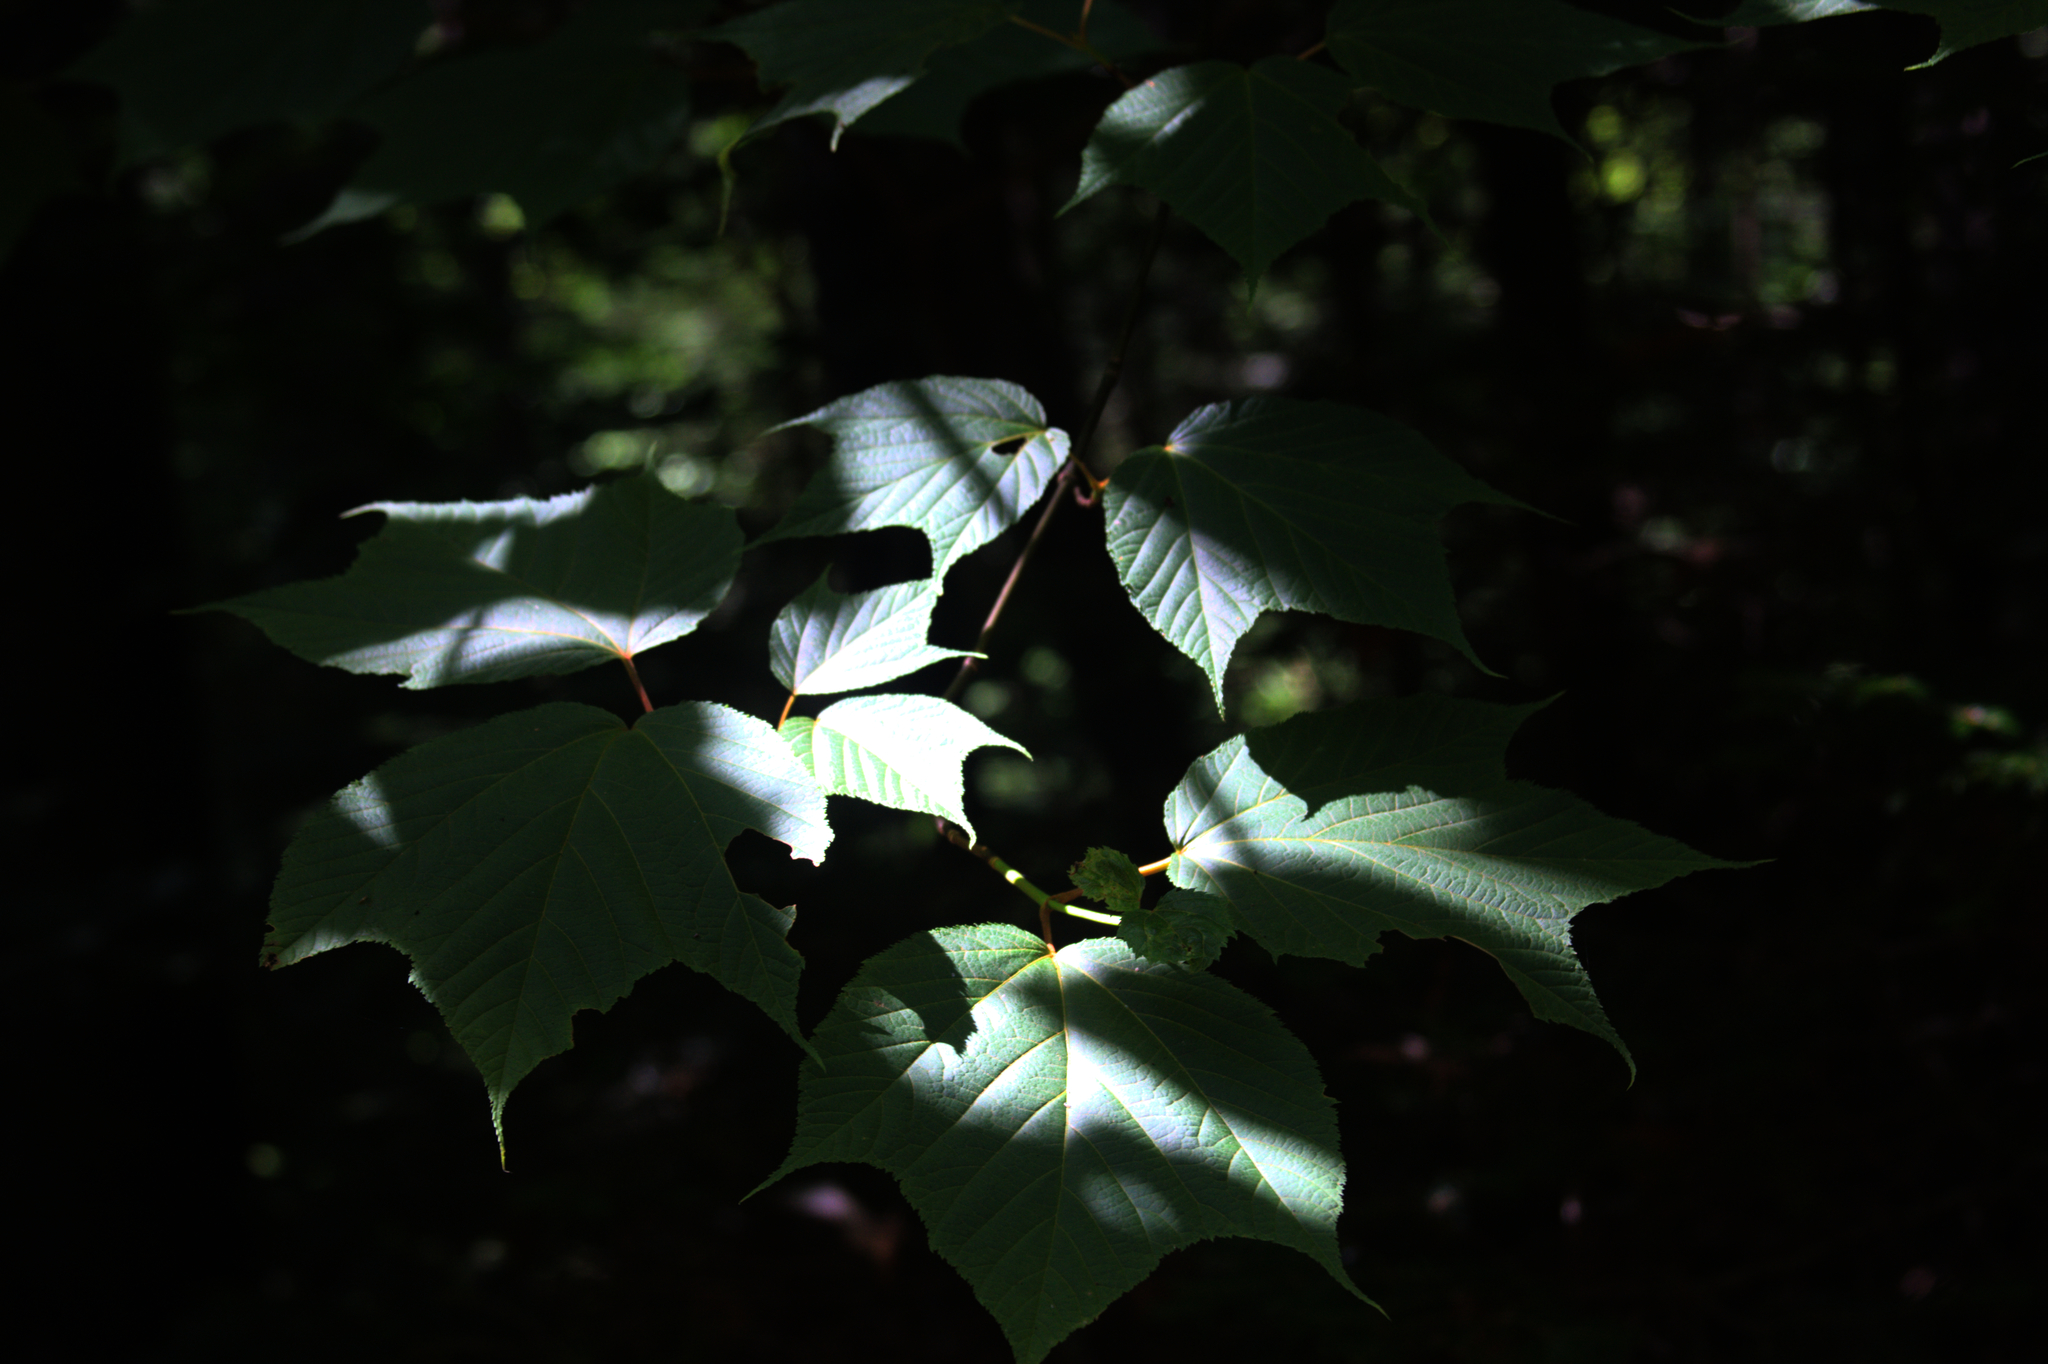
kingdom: Plantae
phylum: Tracheophyta
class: Magnoliopsida
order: Sapindales
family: Sapindaceae
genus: Acer
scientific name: Acer pensylvanicum
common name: Moosewood
